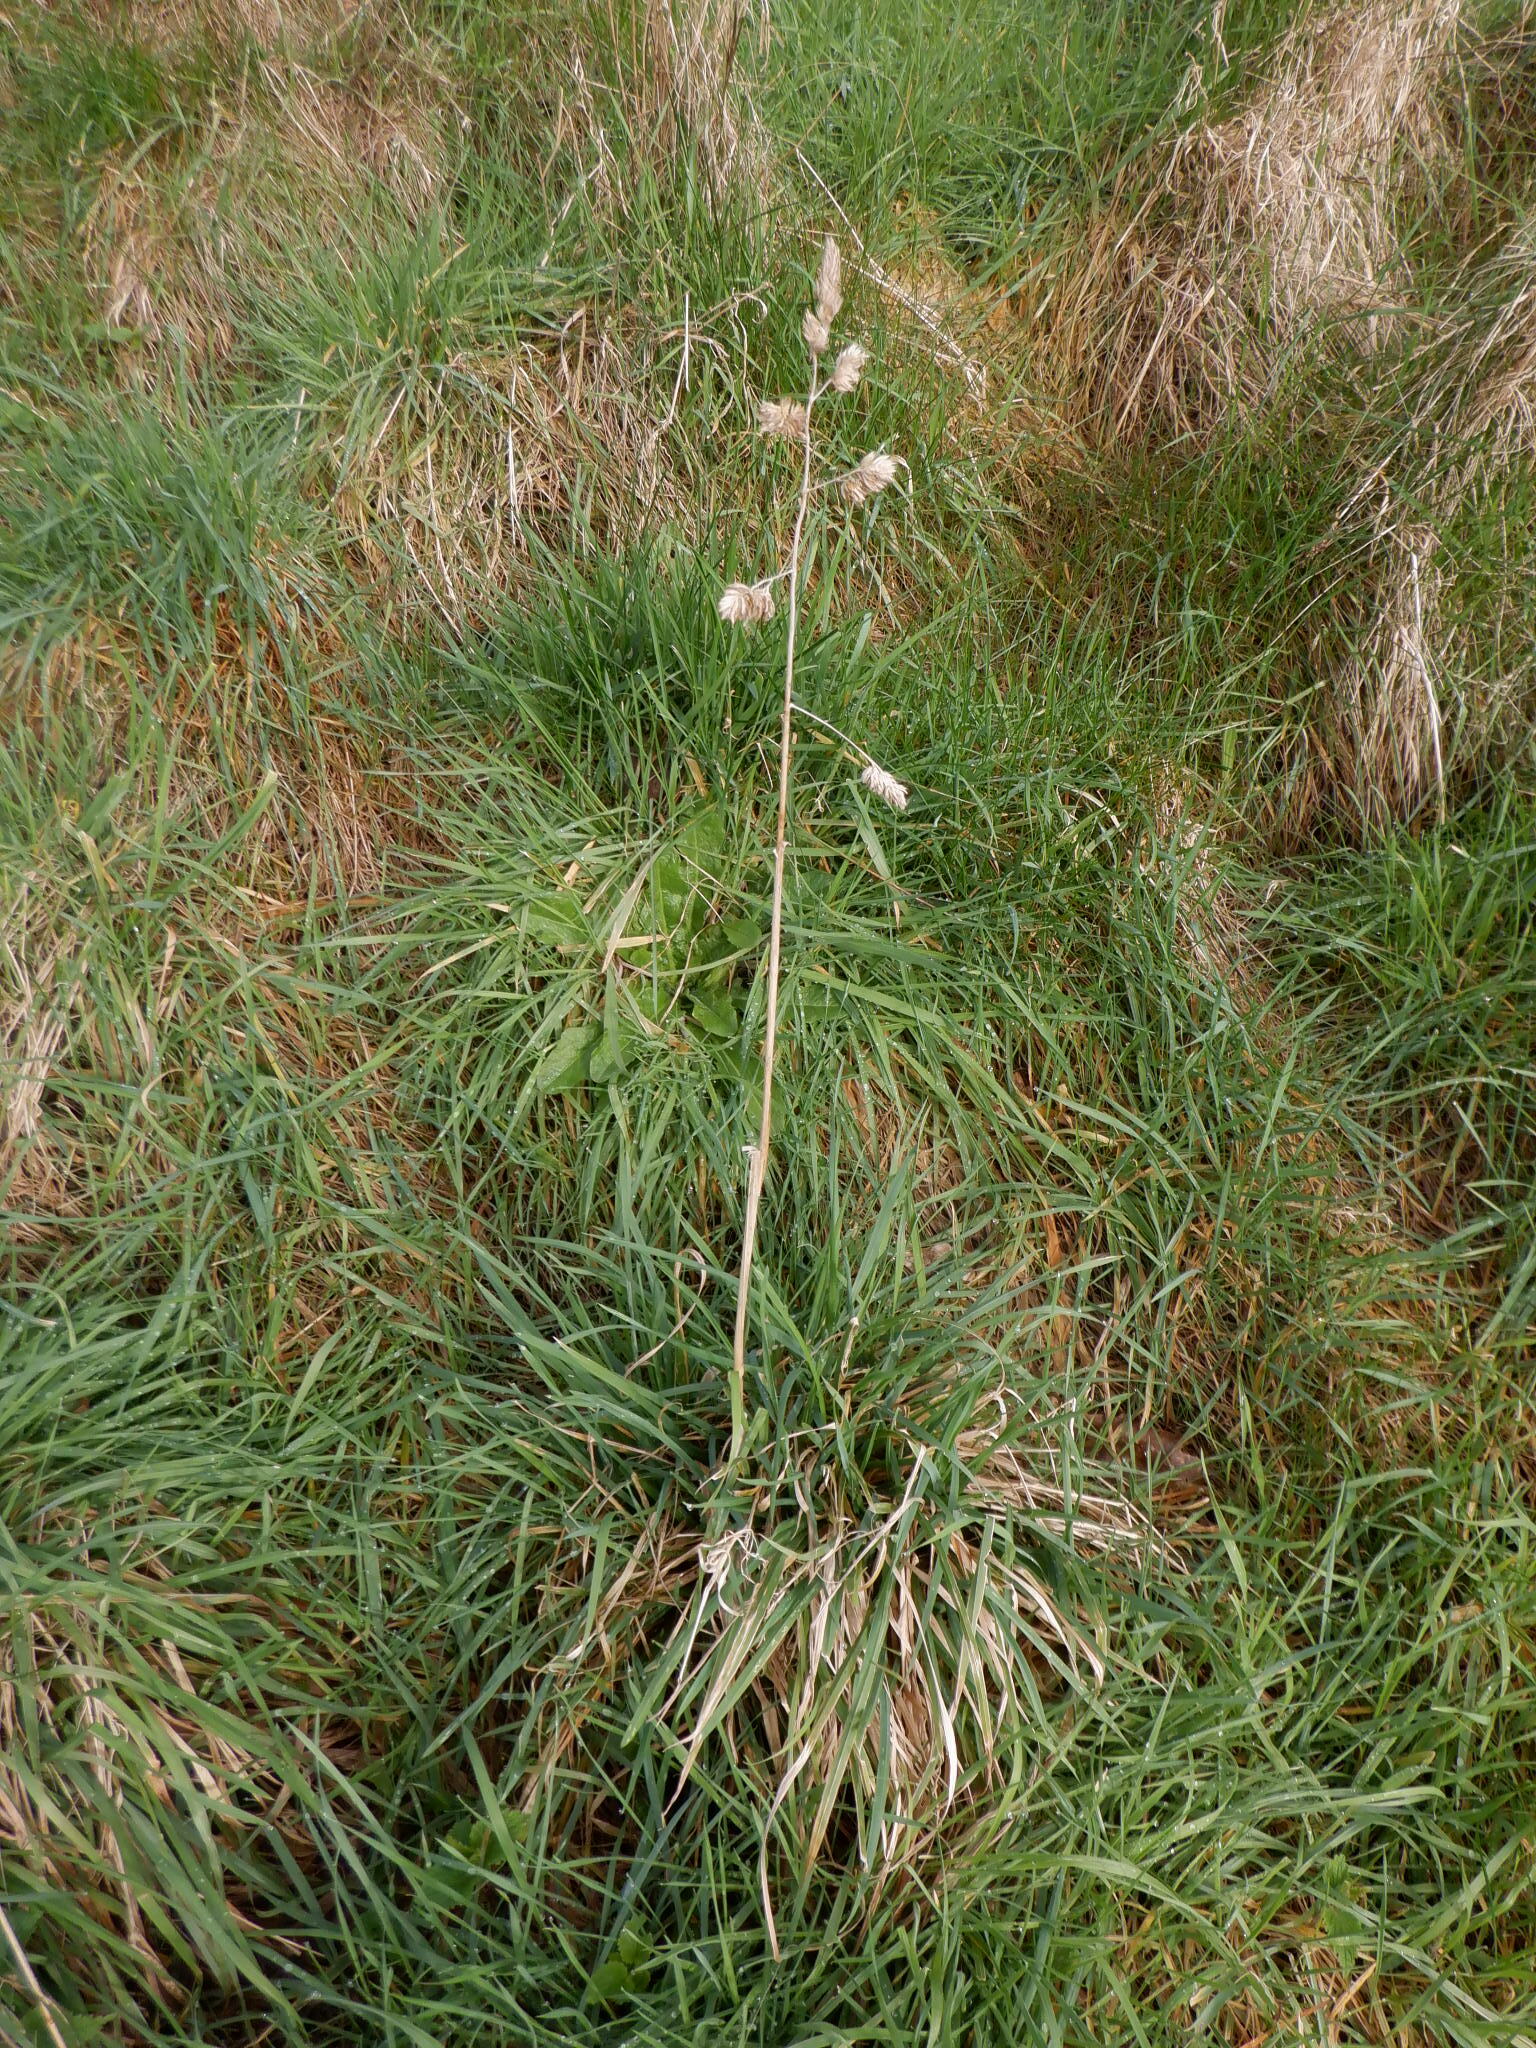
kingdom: Plantae
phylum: Tracheophyta
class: Liliopsida
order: Poales
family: Poaceae
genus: Dactylis
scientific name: Dactylis glomerata
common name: Orchardgrass
